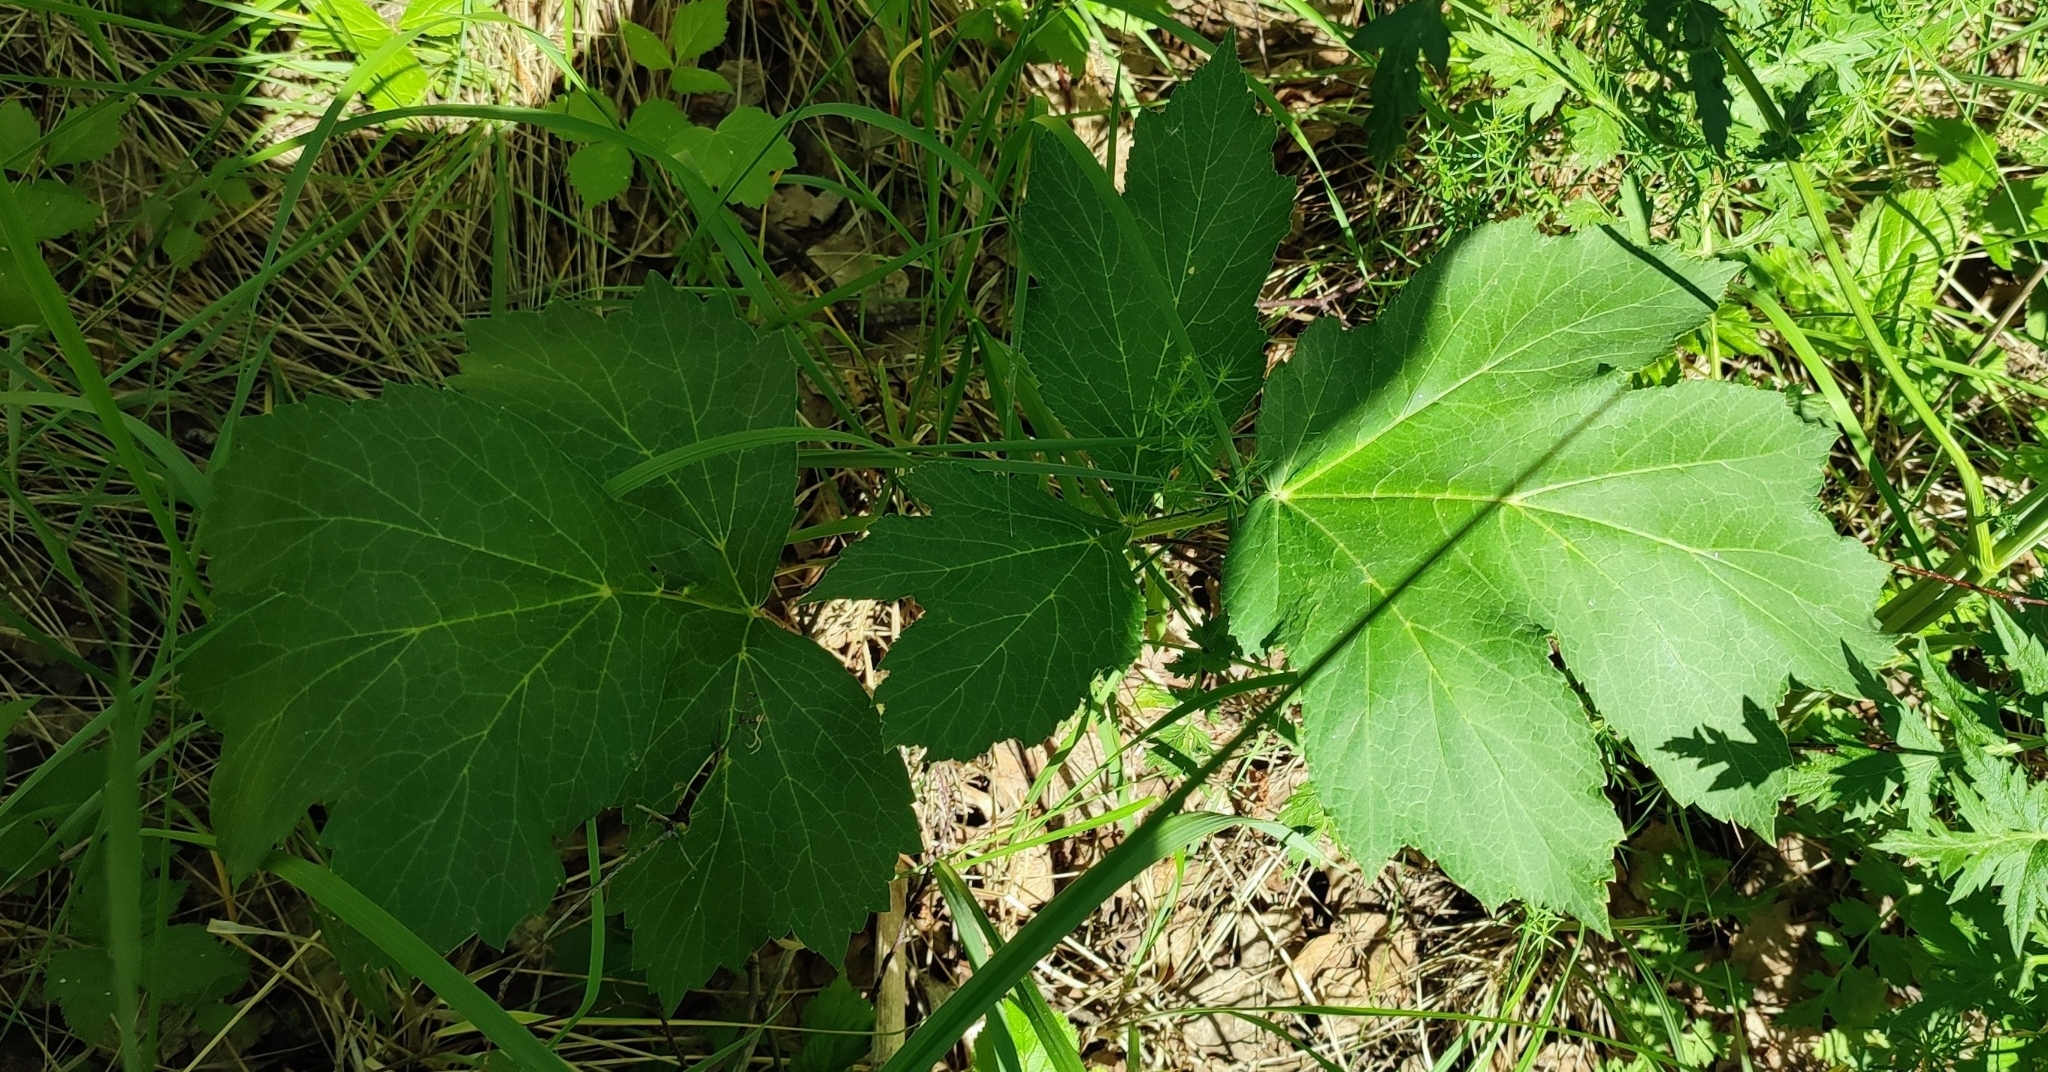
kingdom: Plantae
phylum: Tracheophyta
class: Magnoliopsida
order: Apiales
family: Apiaceae
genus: Heracleum
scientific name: Heracleum sphondylium
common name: Hogweed
